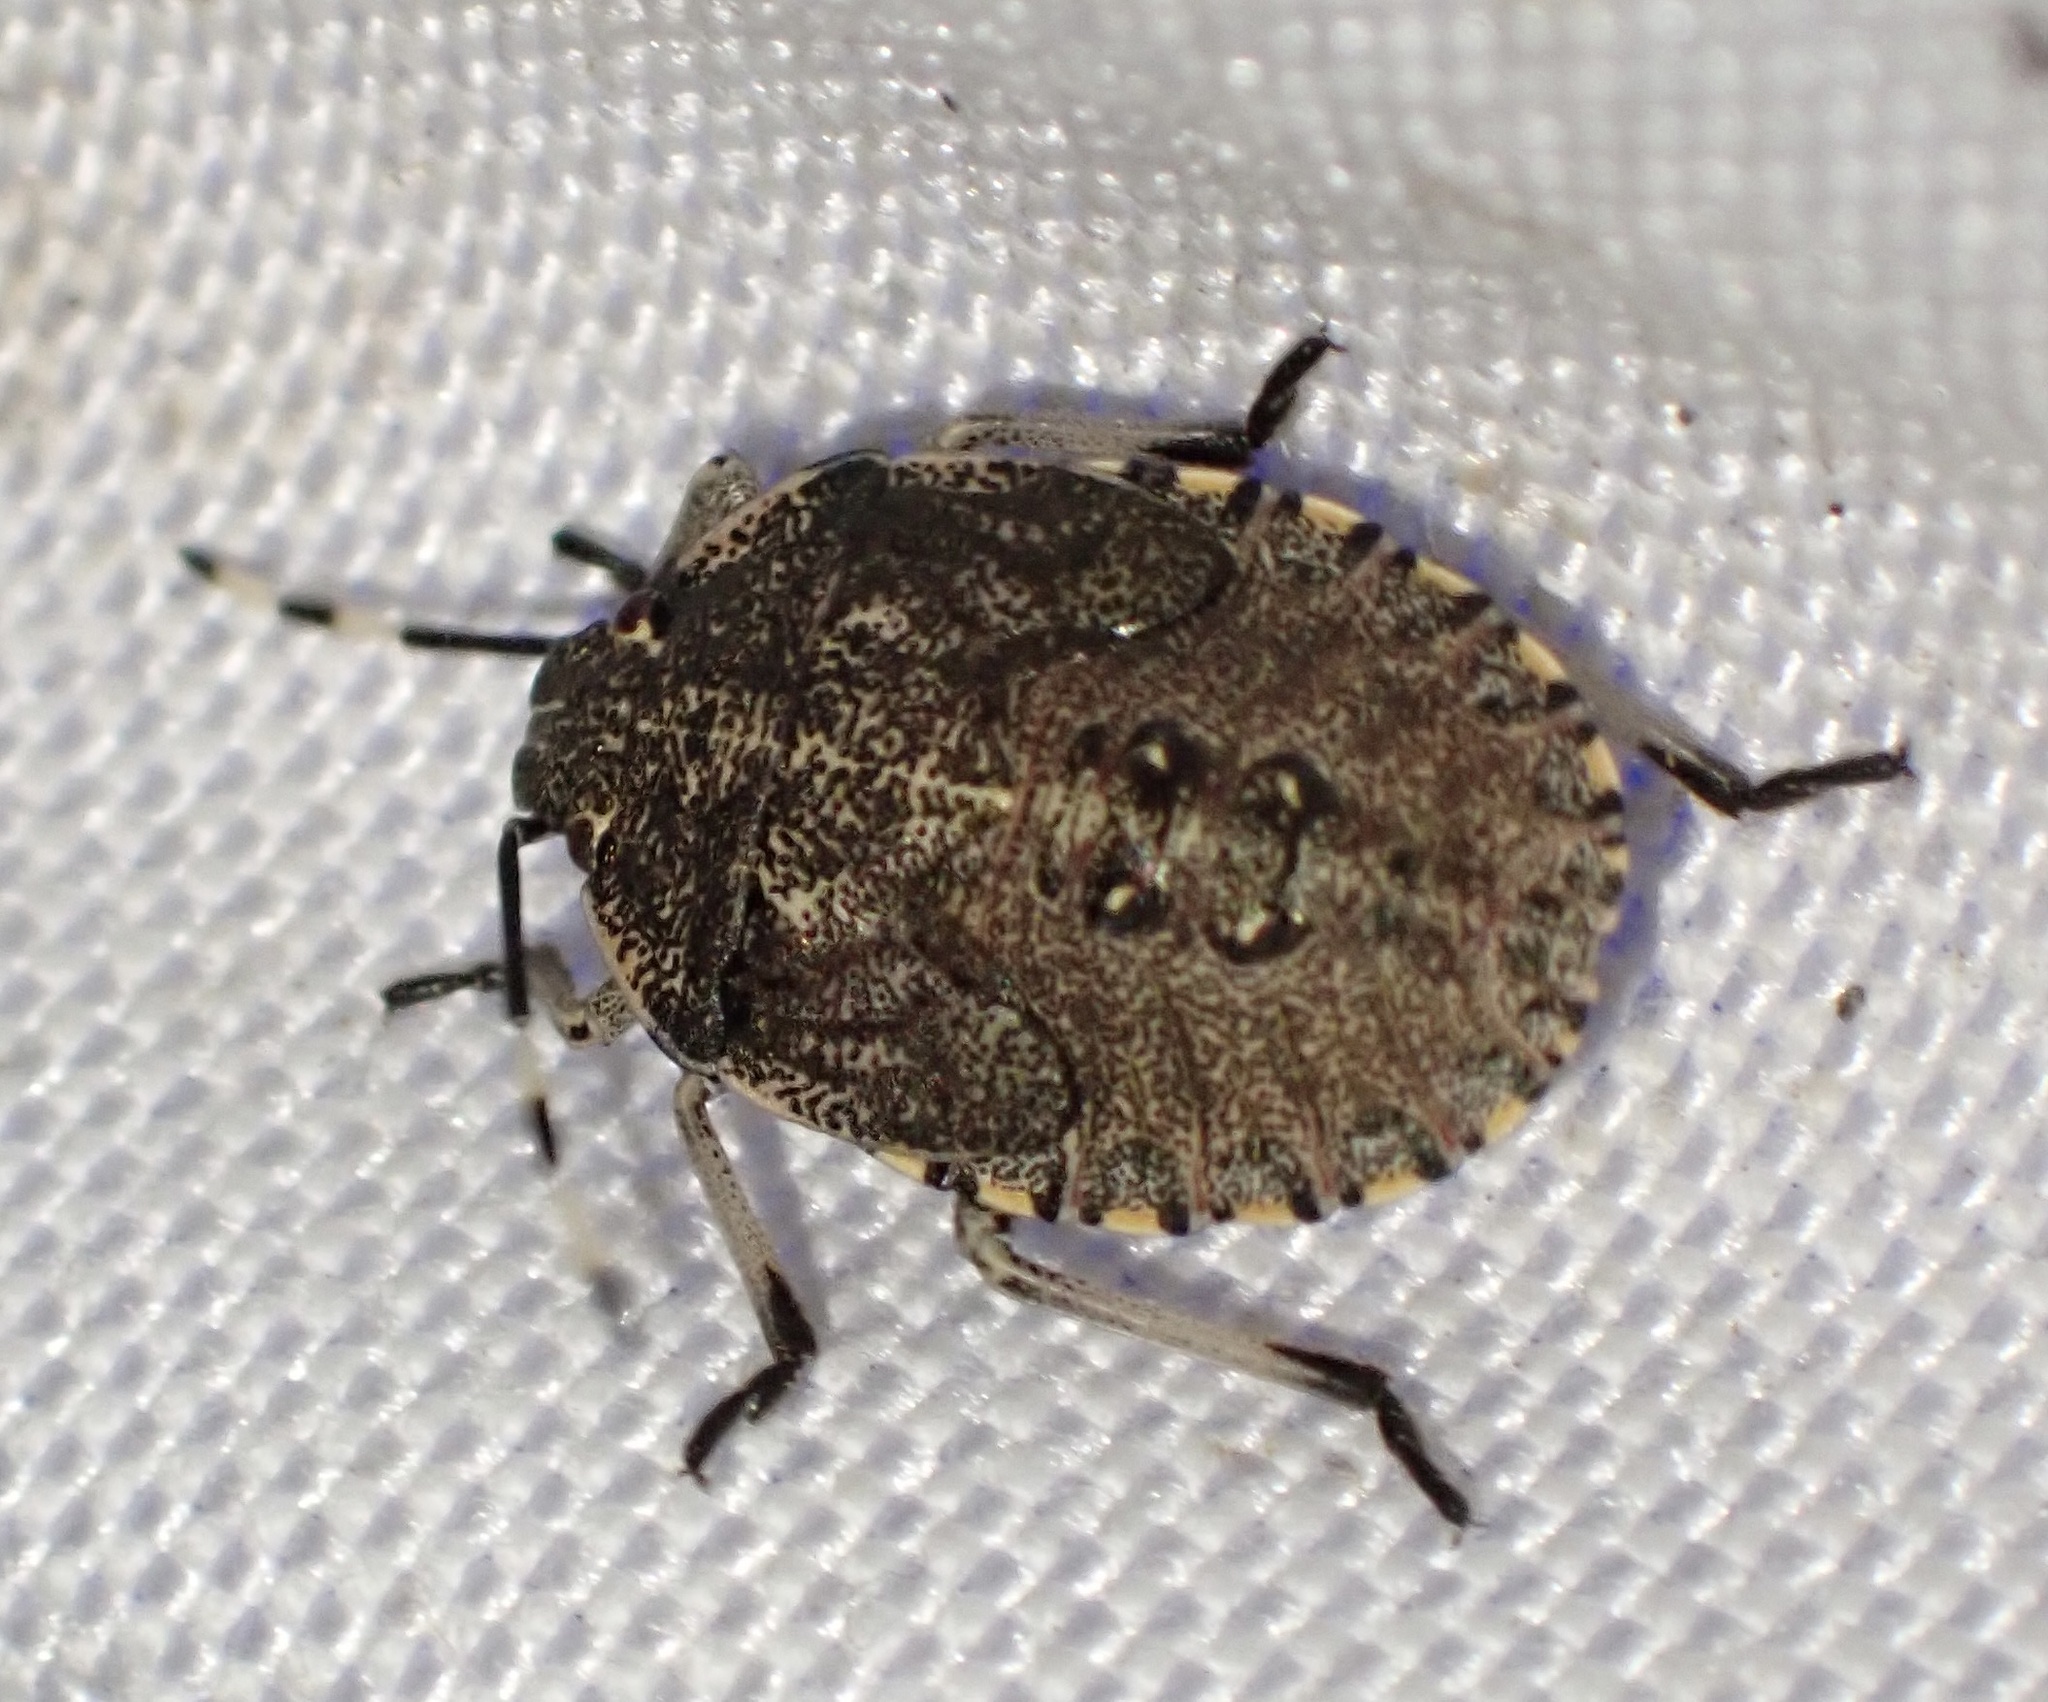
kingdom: Animalia
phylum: Arthropoda
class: Insecta
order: Hemiptera
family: Pentatomidae
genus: Rhaphigaster
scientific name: Rhaphigaster nebulosa
